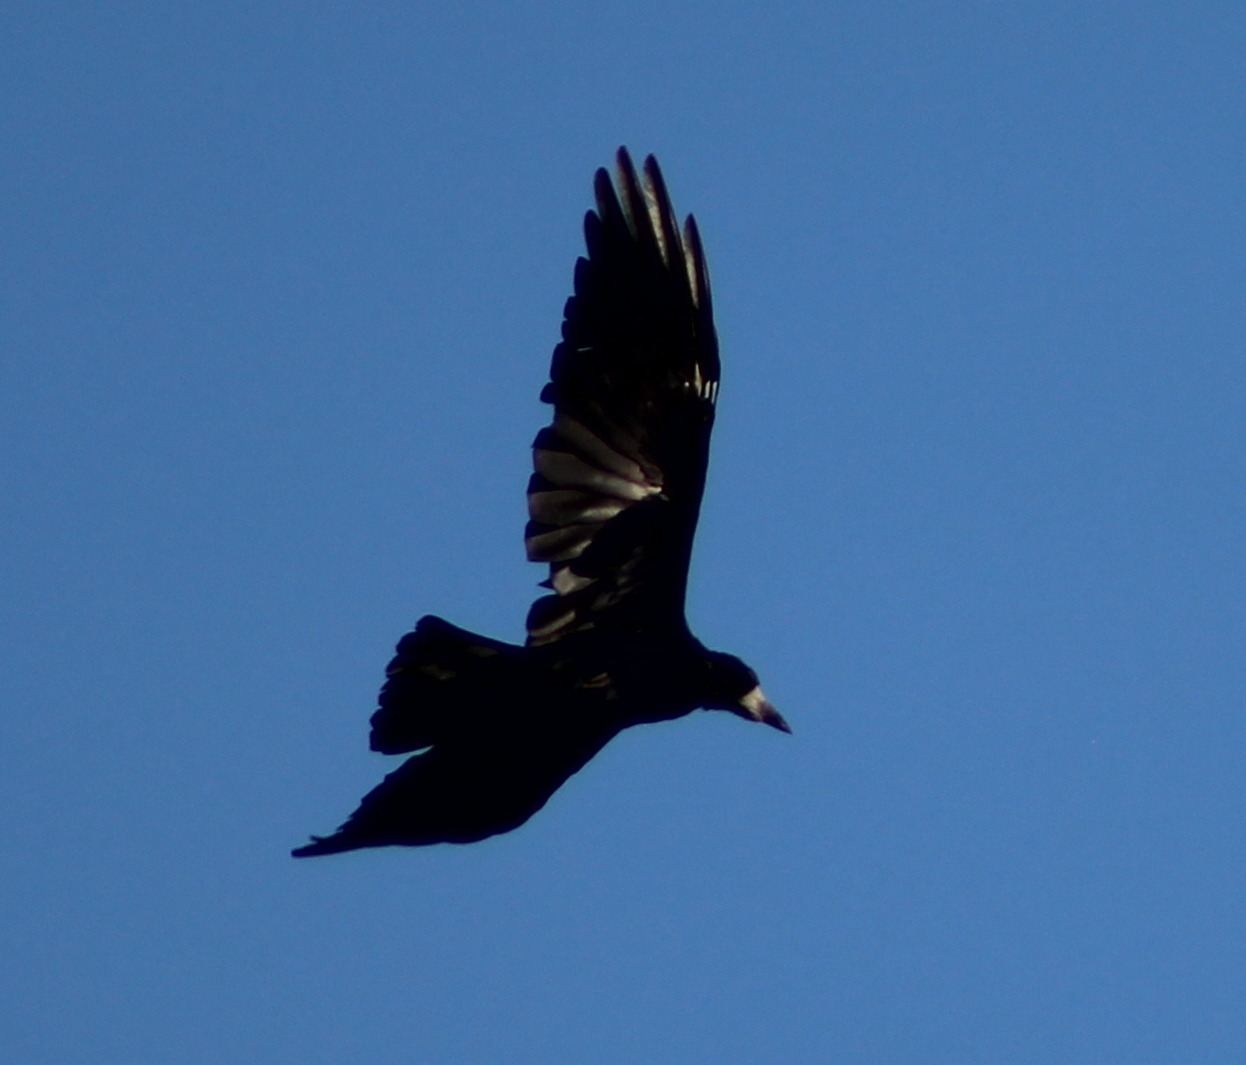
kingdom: Animalia
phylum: Chordata
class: Aves
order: Passeriformes
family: Corvidae
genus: Corvus
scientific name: Corvus frugilegus
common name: Rook
